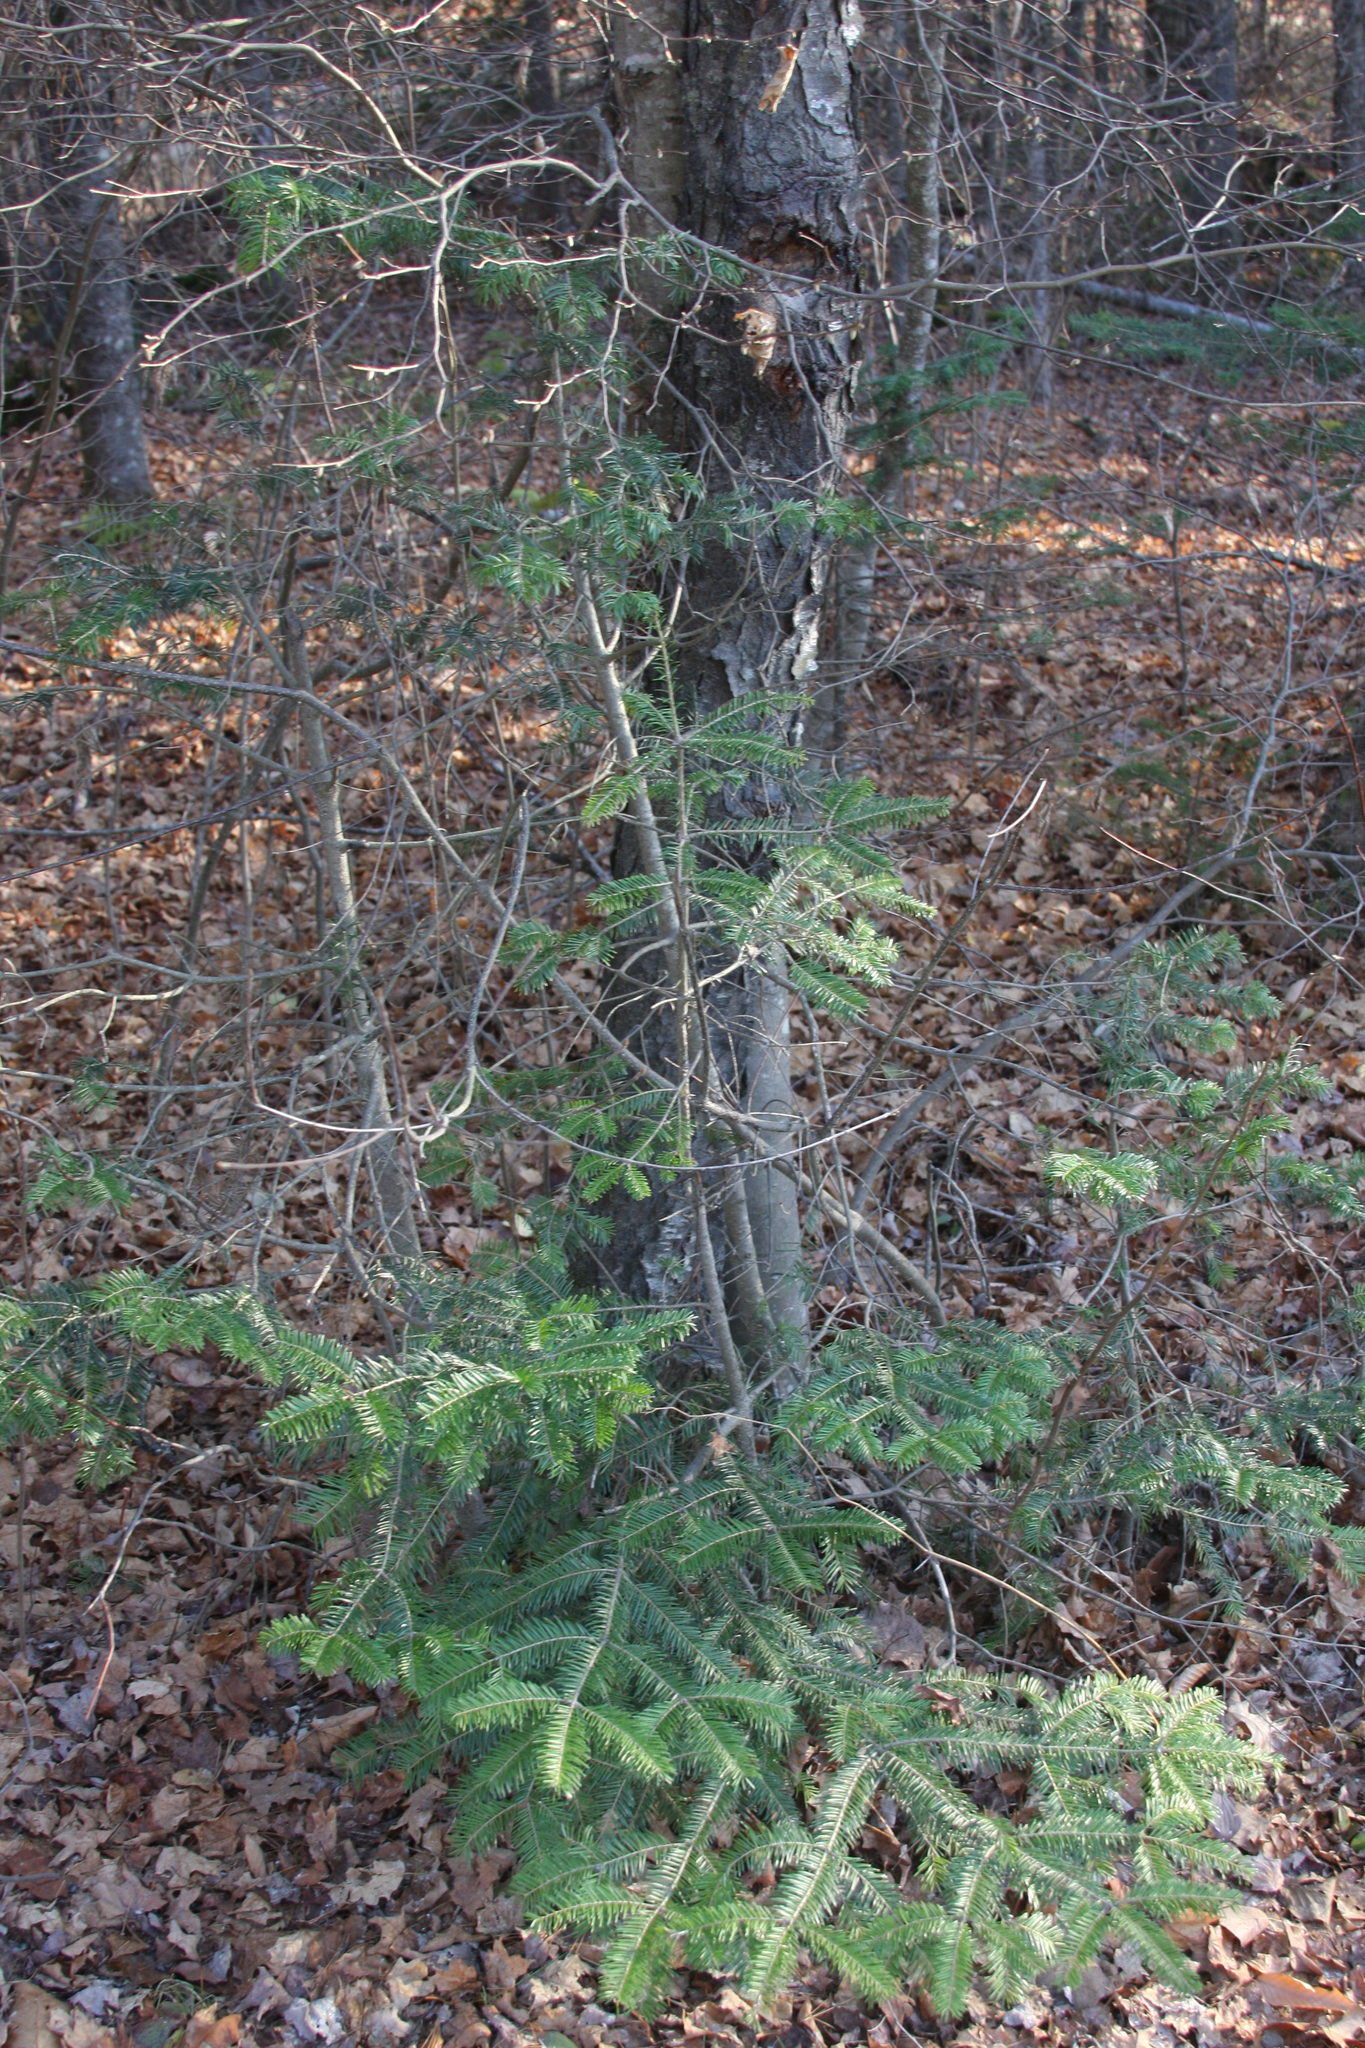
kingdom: Plantae
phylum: Tracheophyta
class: Pinopsida
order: Pinales
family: Pinaceae
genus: Abies
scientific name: Abies balsamea
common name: Balsam fir
